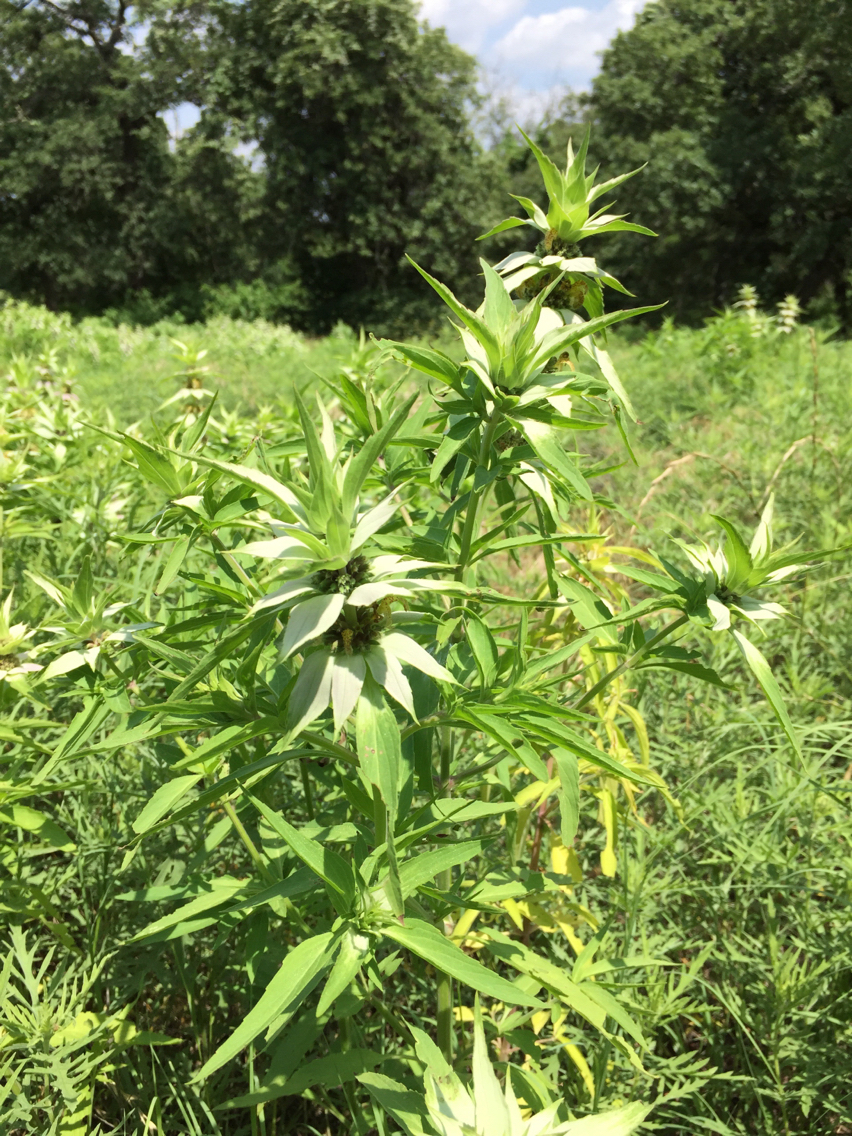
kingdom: Plantae
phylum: Tracheophyta
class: Magnoliopsida
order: Lamiales
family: Lamiaceae
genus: Monarda
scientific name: Monarda punctata
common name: Dotted monarda
